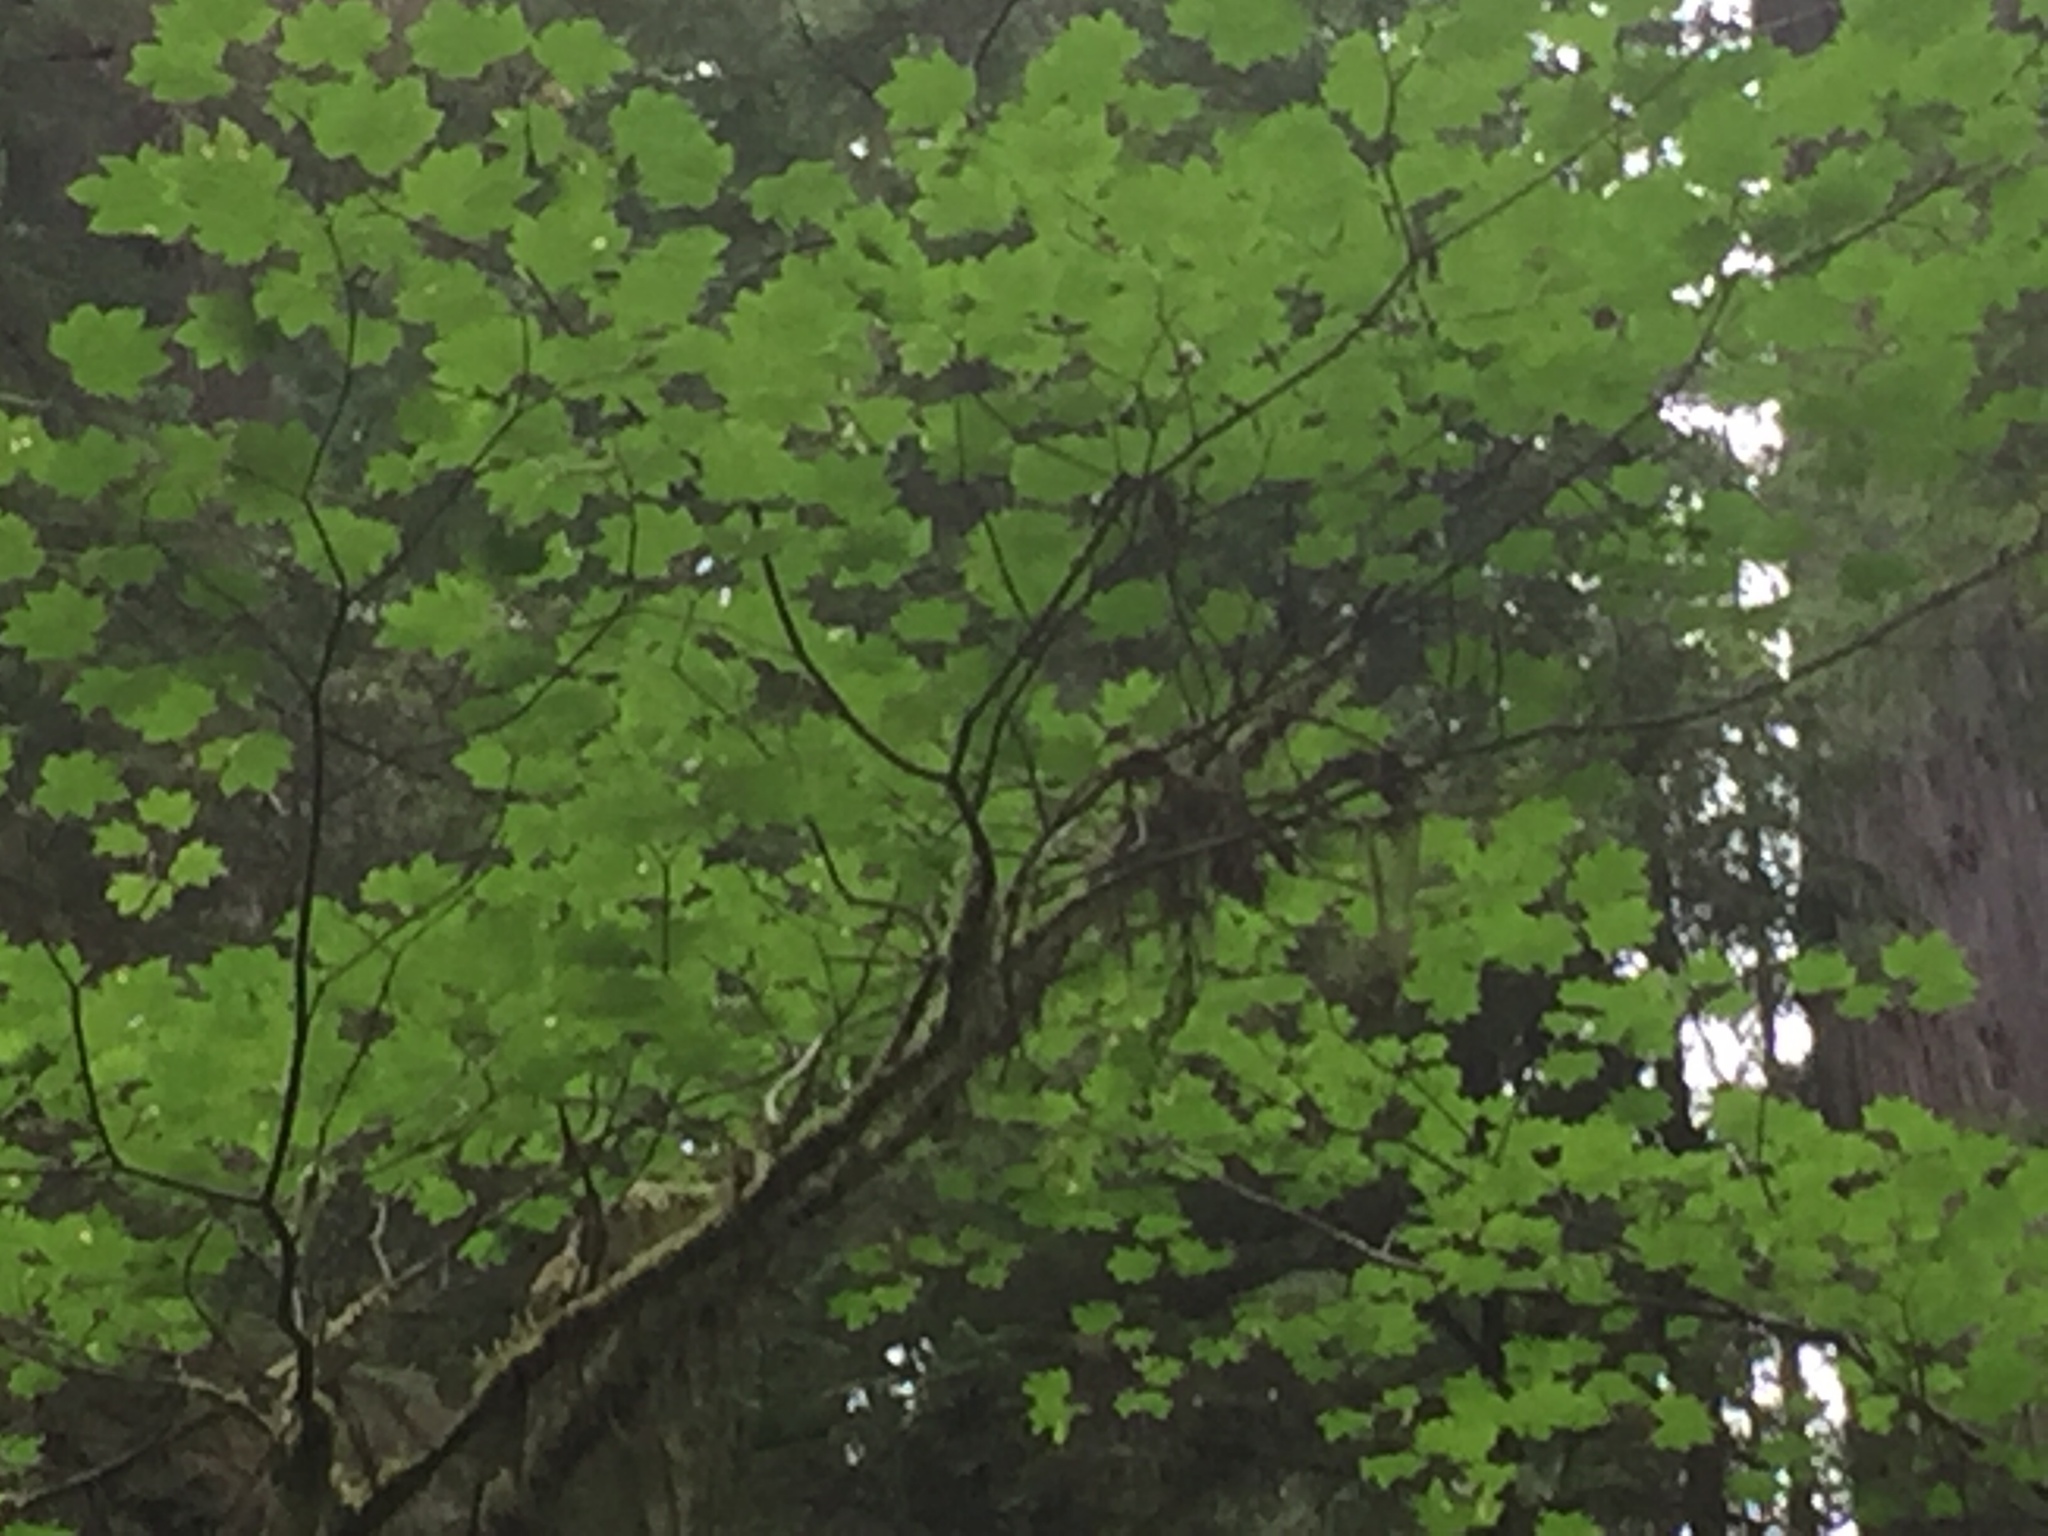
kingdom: Plantae
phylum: Tracheophyta
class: Magnoliopsida
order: Sapindales
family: Sapindaceae
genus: Acer
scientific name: Acer circinatum
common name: Vine maple
